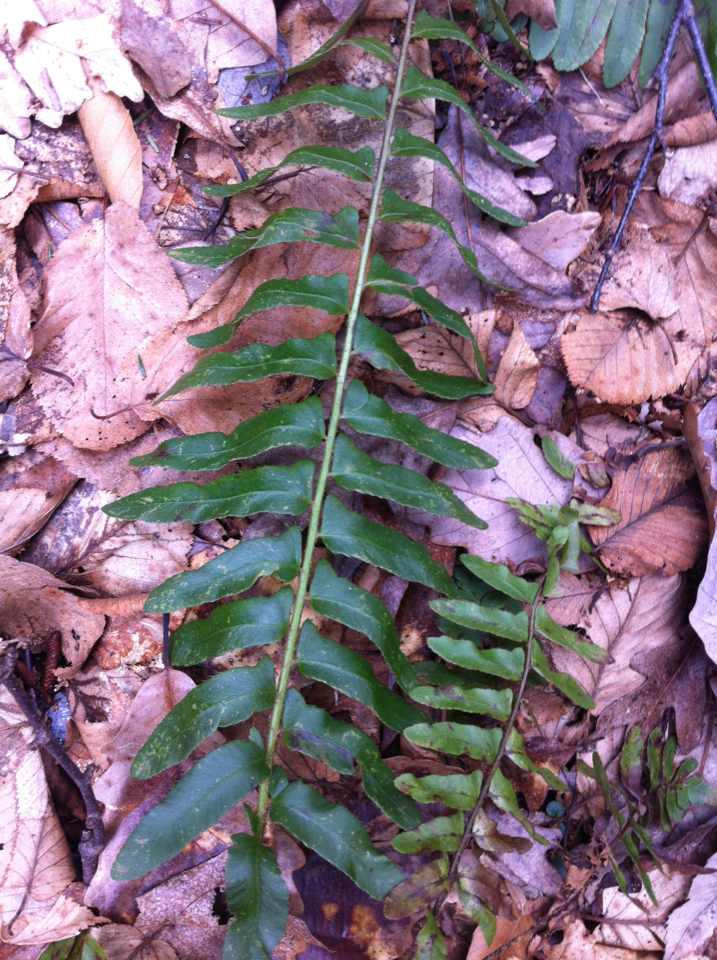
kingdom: Plantae
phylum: Tracheophyta
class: Polypodiopsida
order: Polypodiales
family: Dryopteridaceae
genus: Polystichum
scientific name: Polystichum acrostichoides
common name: Christmas fern
